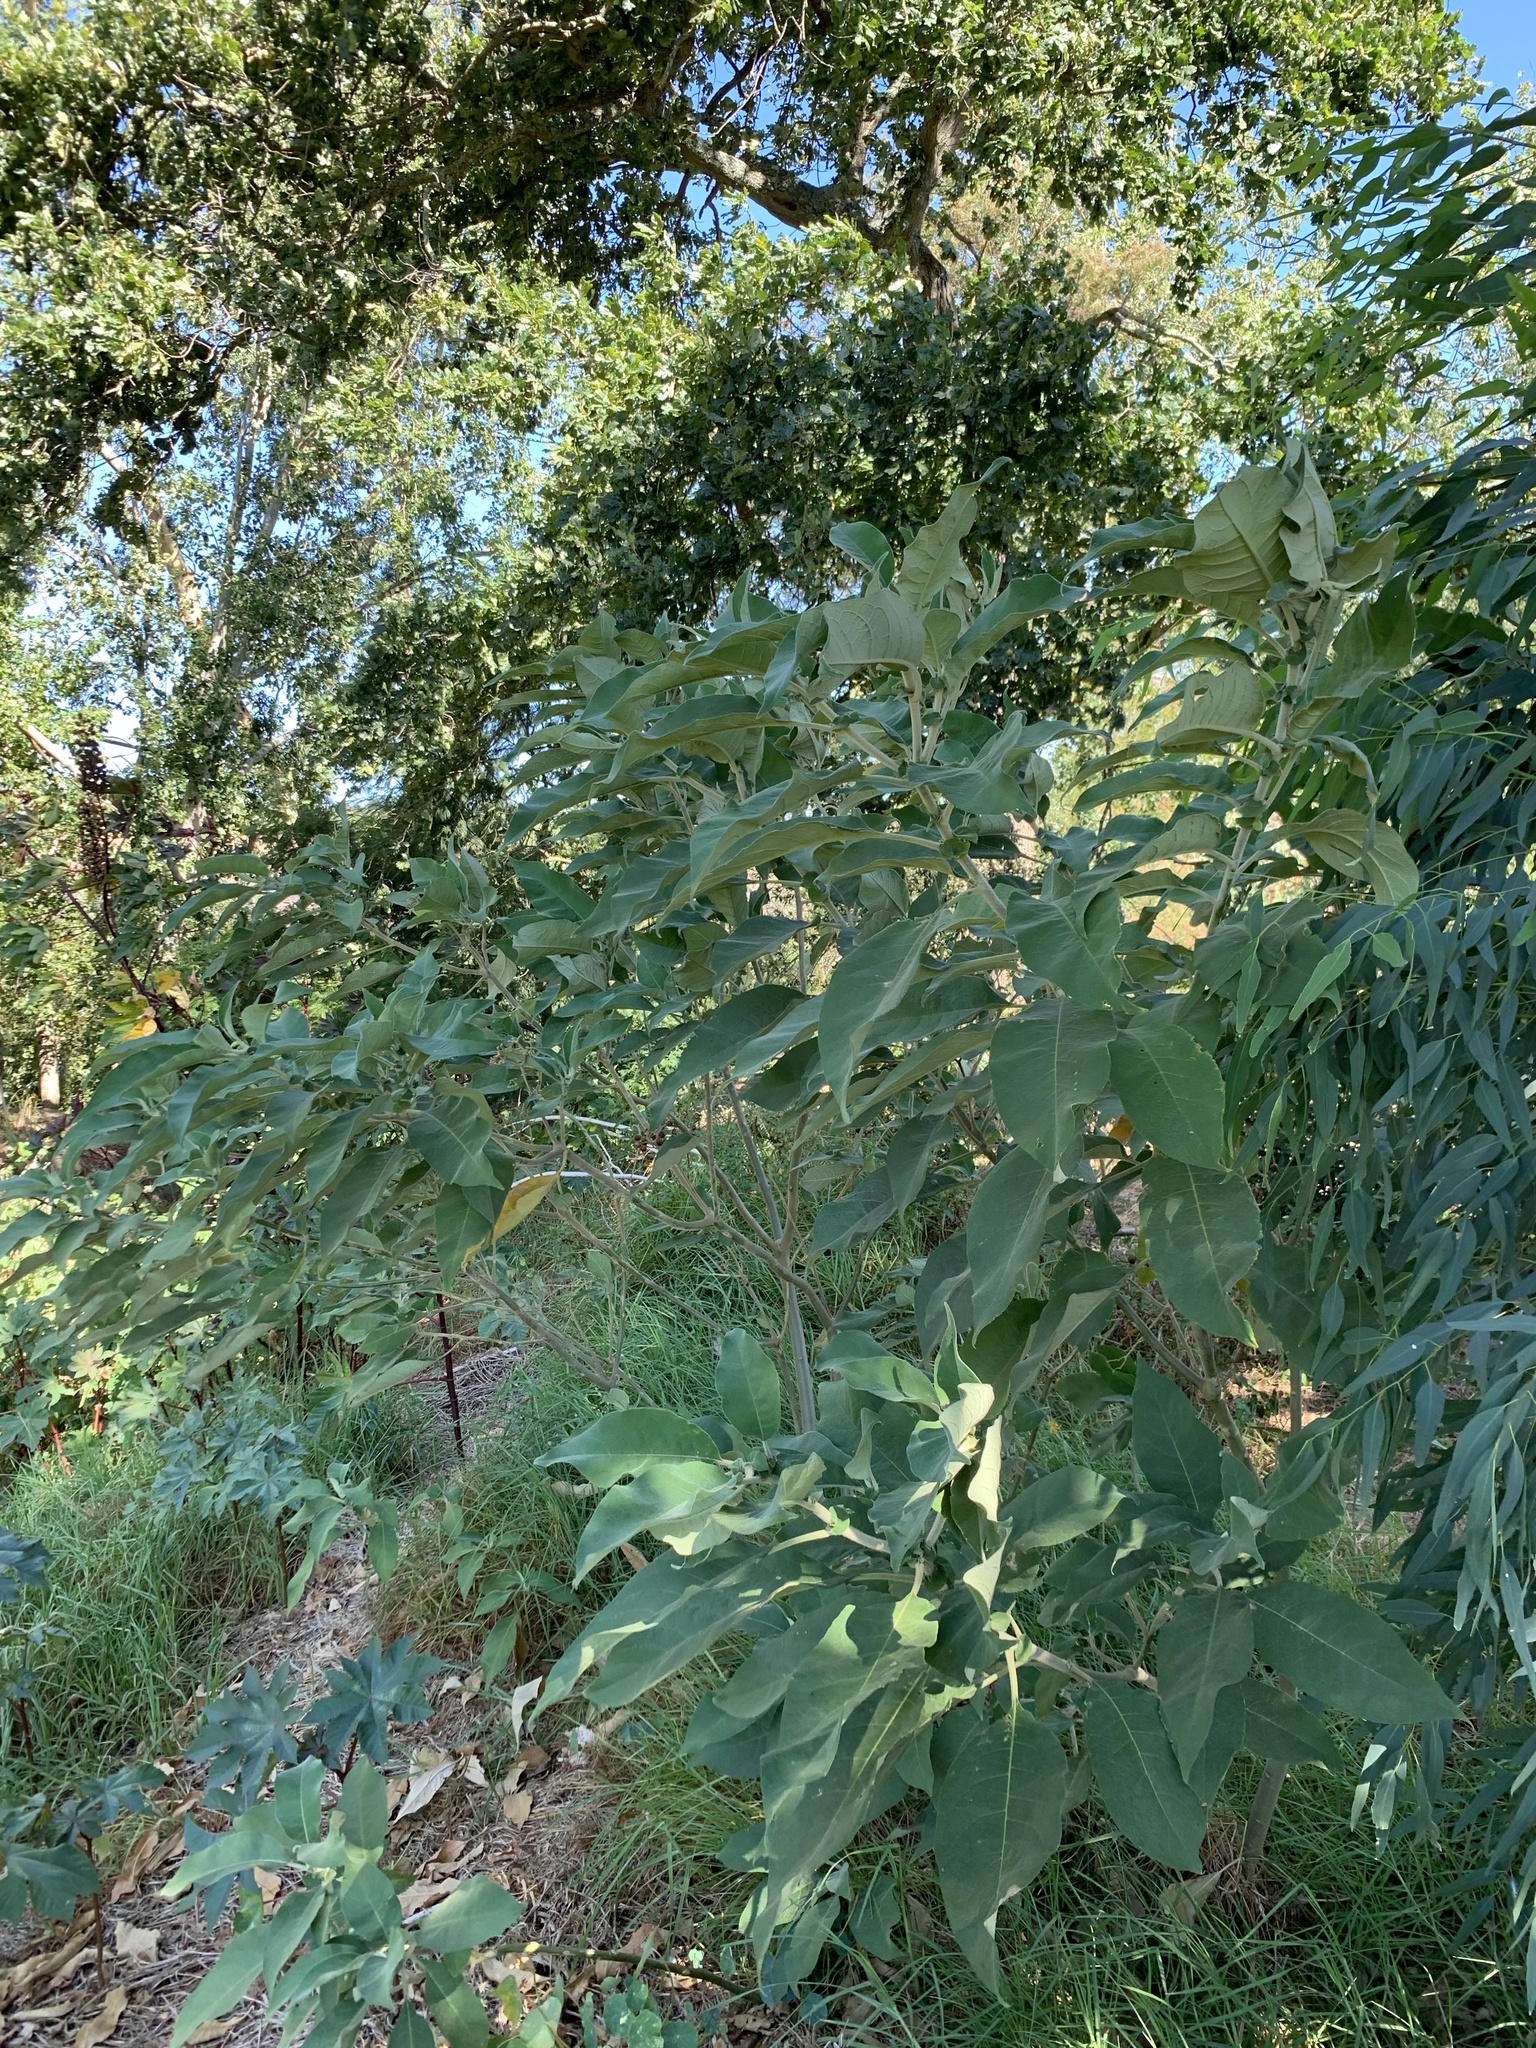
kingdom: Plantae
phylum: Tracheophyta
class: Magnoliopsida
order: Solanales
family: Solanaceae
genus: Solanum
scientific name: Solanum mauritianum
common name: Earleaf nightshade
